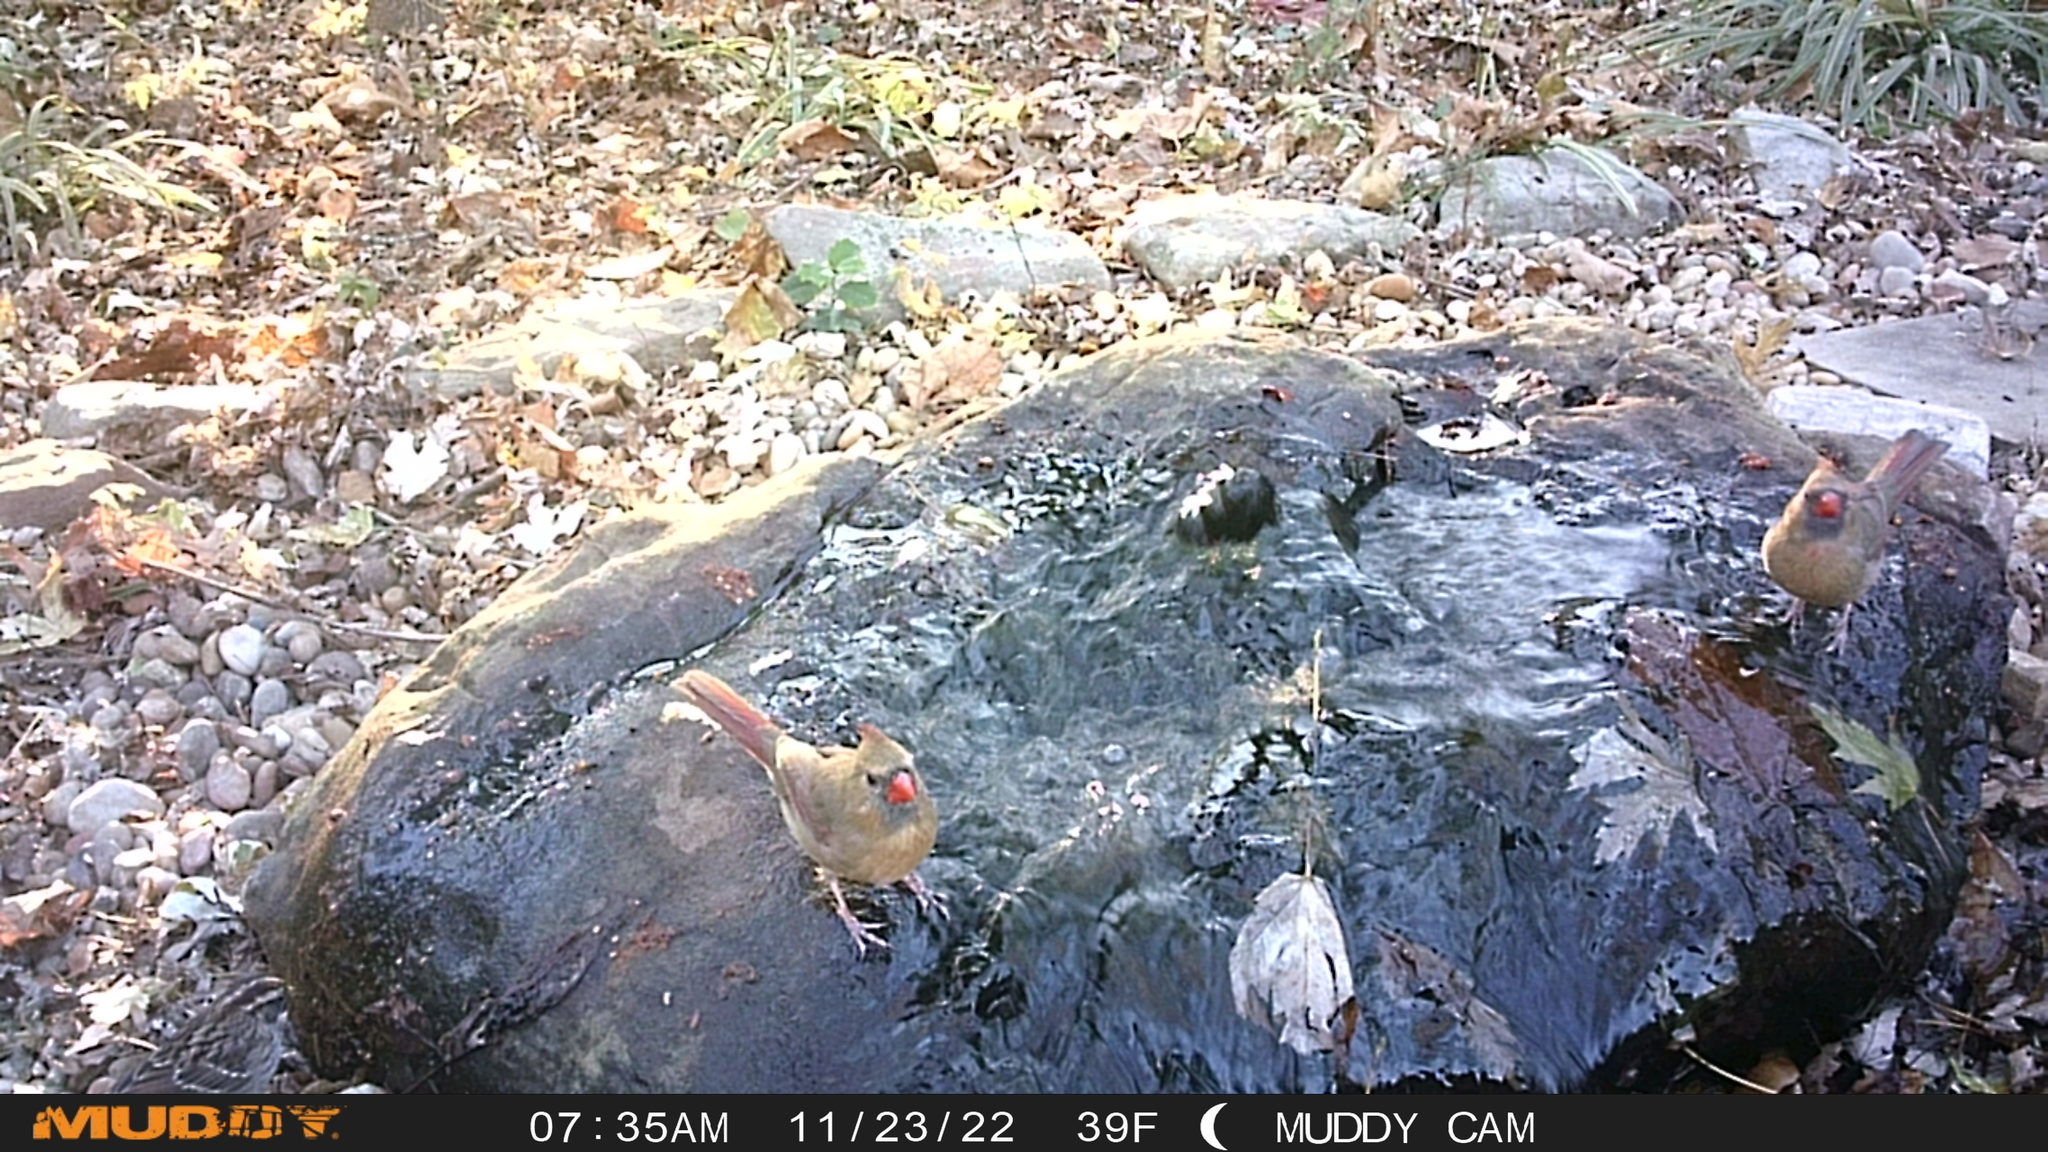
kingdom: Animalia
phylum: Chordata
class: Aves
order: Passeriformes
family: Cardinalidae
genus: Cardinalis
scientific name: Cardinalis cardinalis
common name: Northern cardinal
